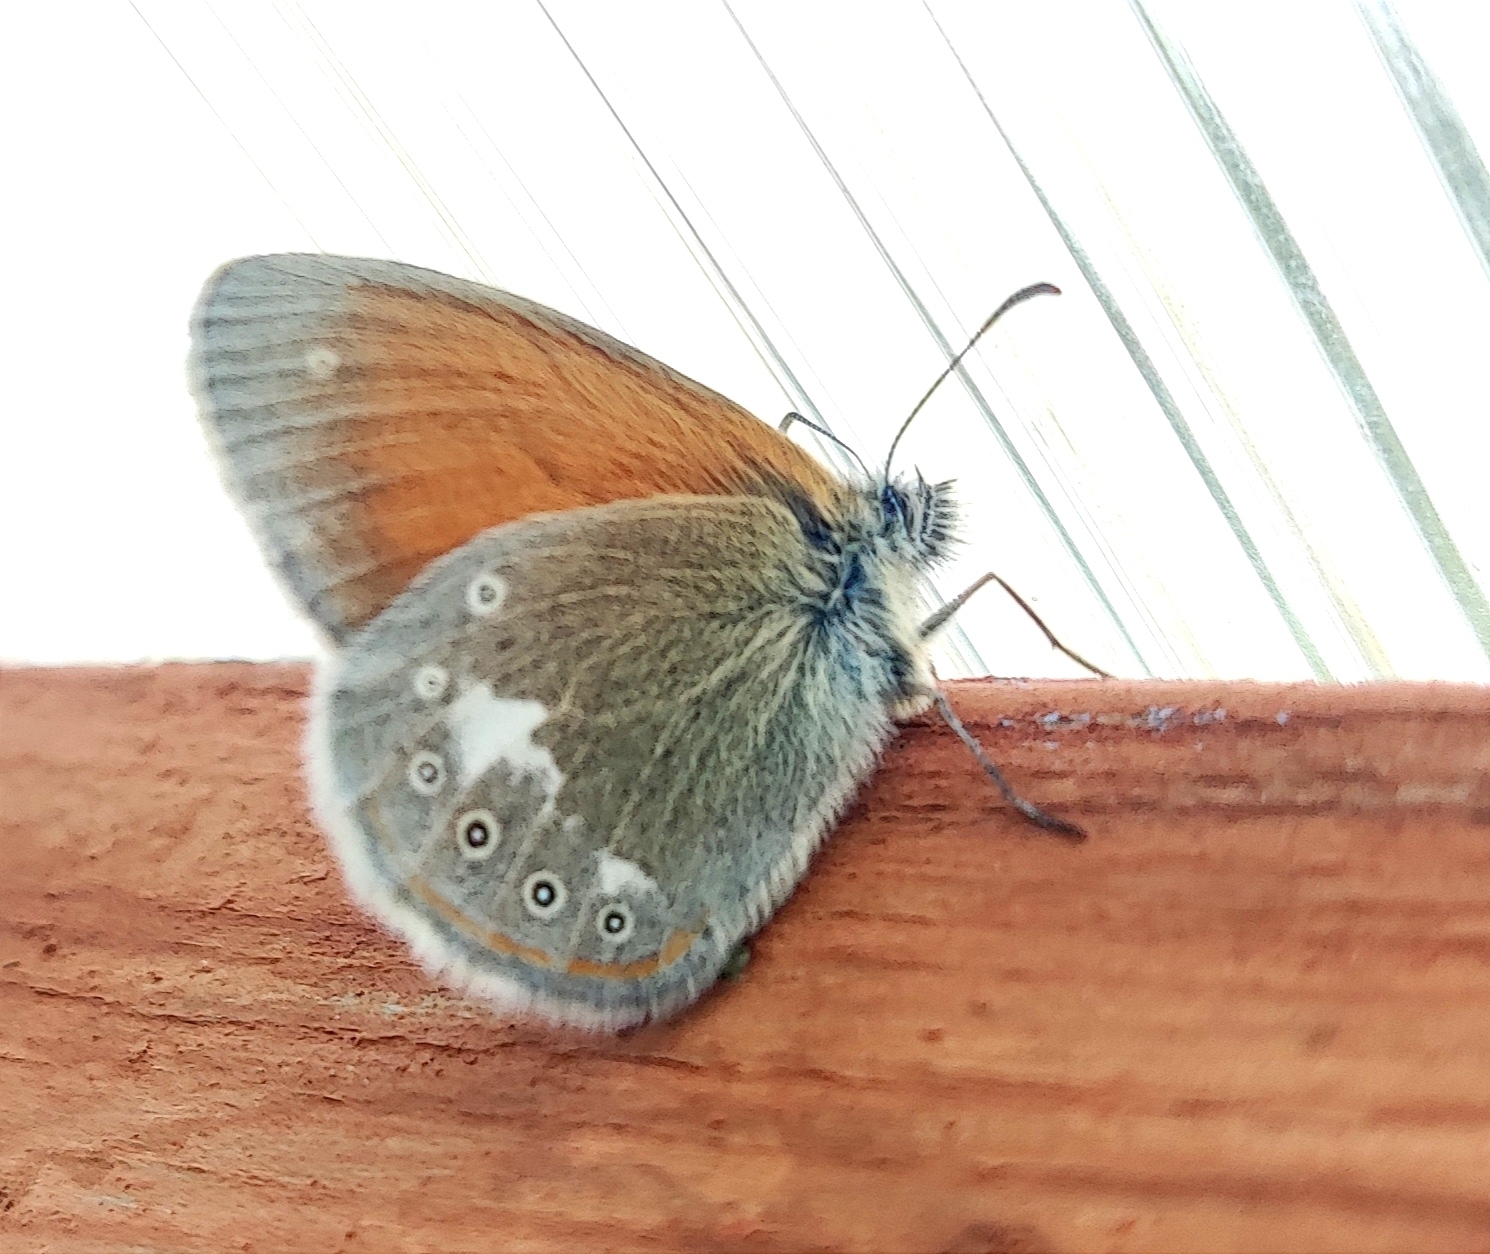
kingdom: Animalia
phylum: Arthropoda
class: Insecta
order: Lepidoptera
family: Nymphalidae
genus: Coenonympha
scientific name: Coenonympha iphis
